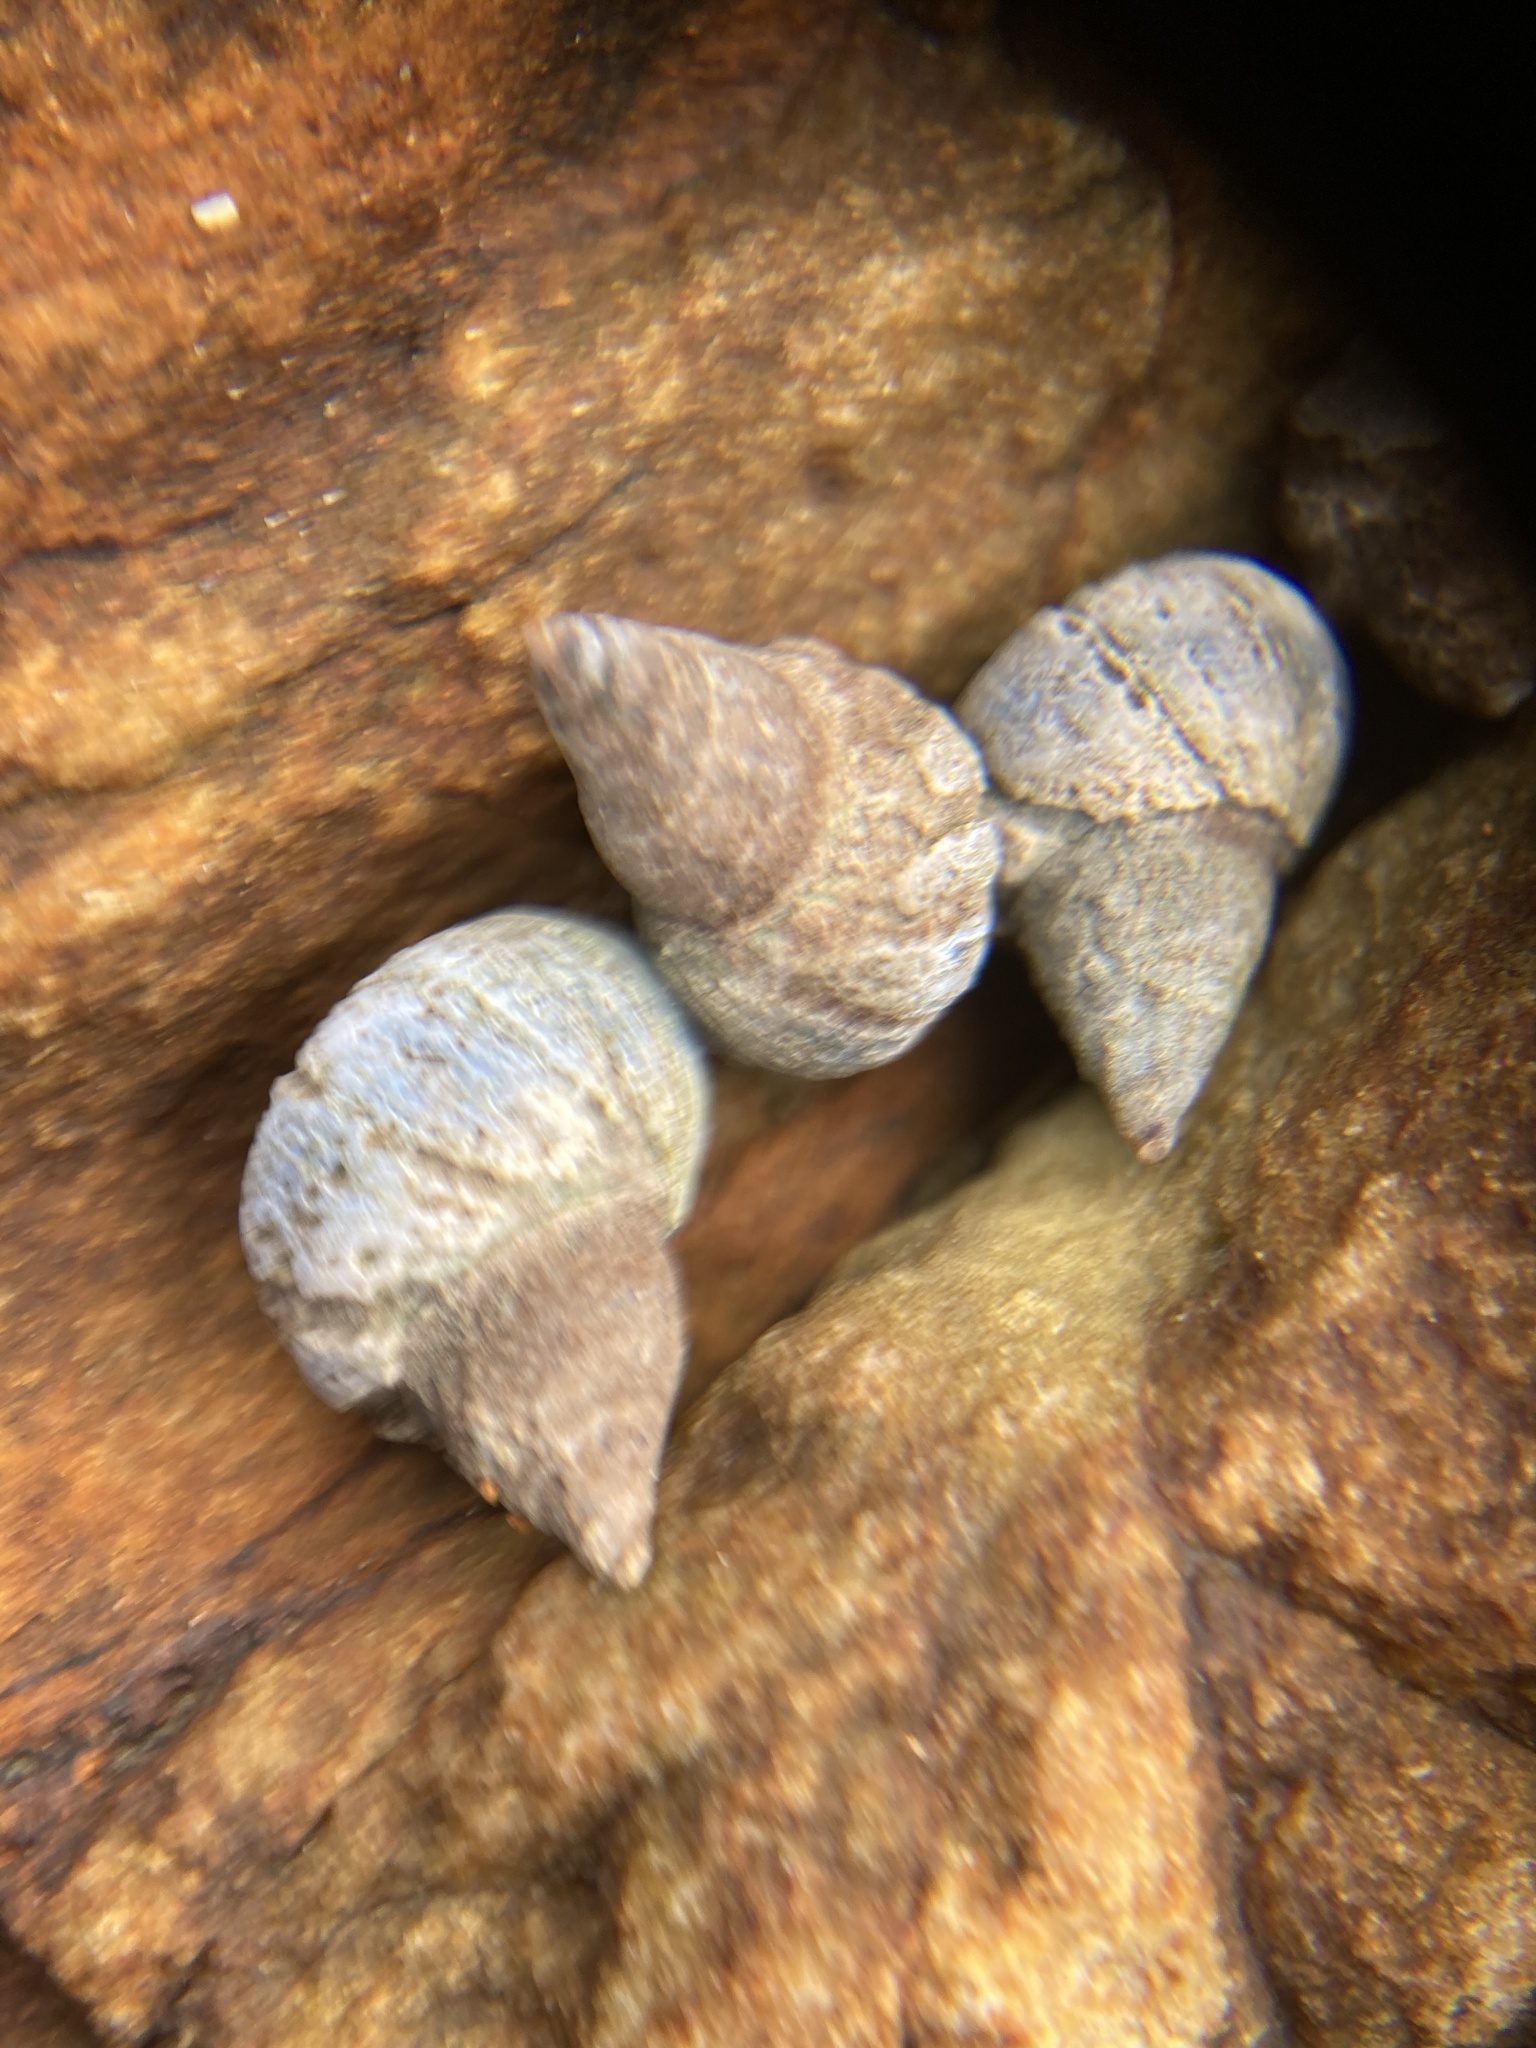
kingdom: Animalia
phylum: Mollusca
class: Gastropoda
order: Littorinimorpha
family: Littorinidae
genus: Austrolittorina
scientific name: Austrolittorina antipodum
